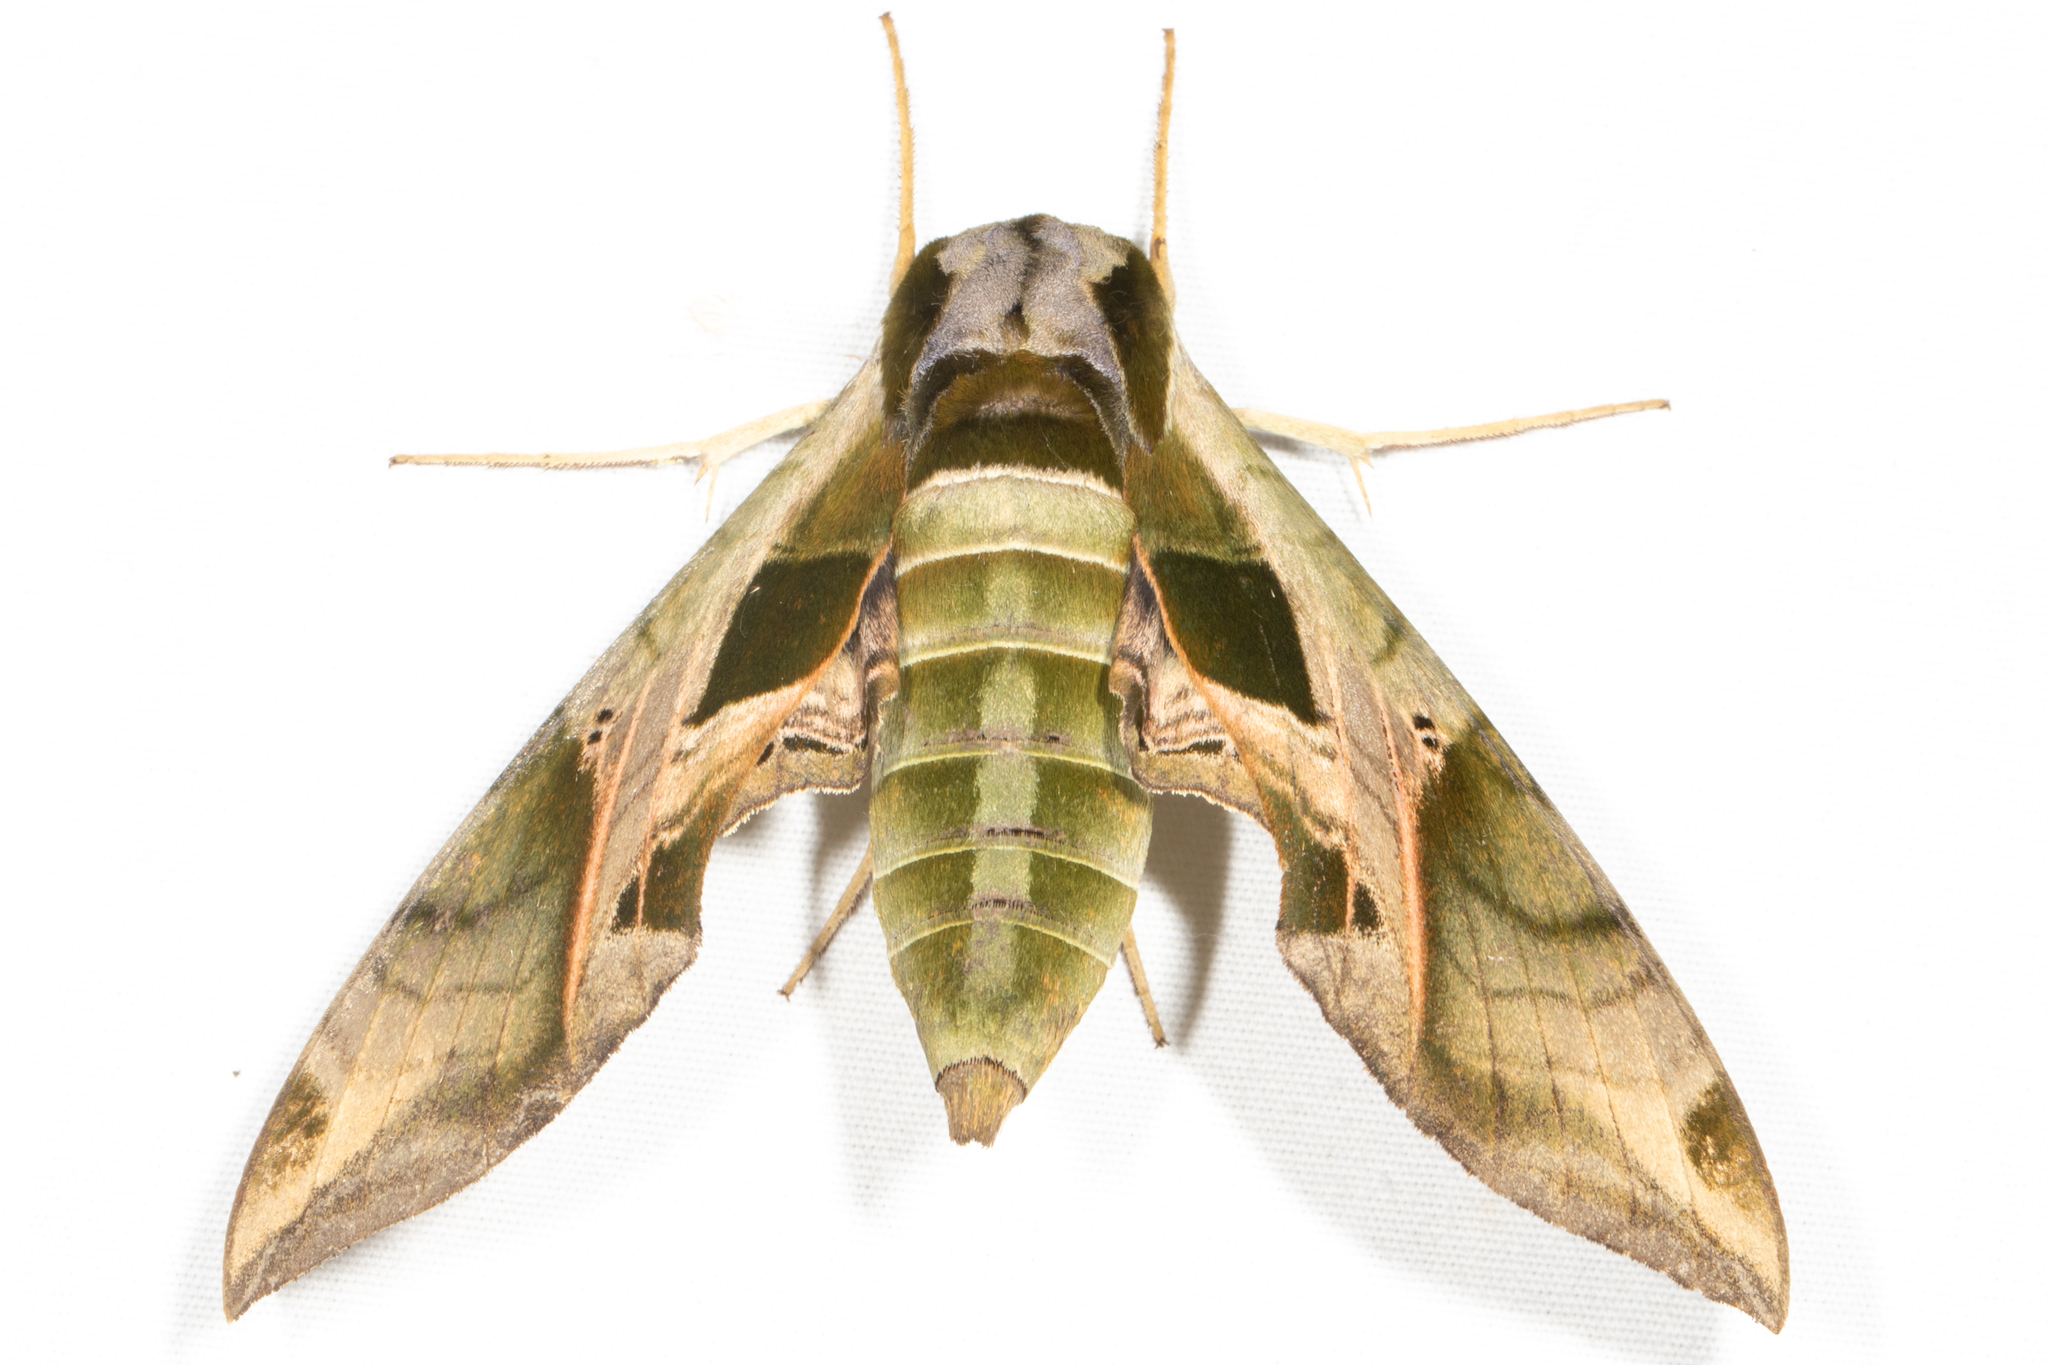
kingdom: Animalia
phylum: Arthropoda
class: Insecta
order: Lepidoptera
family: Sphingidae
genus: Eumorpha
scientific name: Eumorpha pandorus
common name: Pandora sphinx
